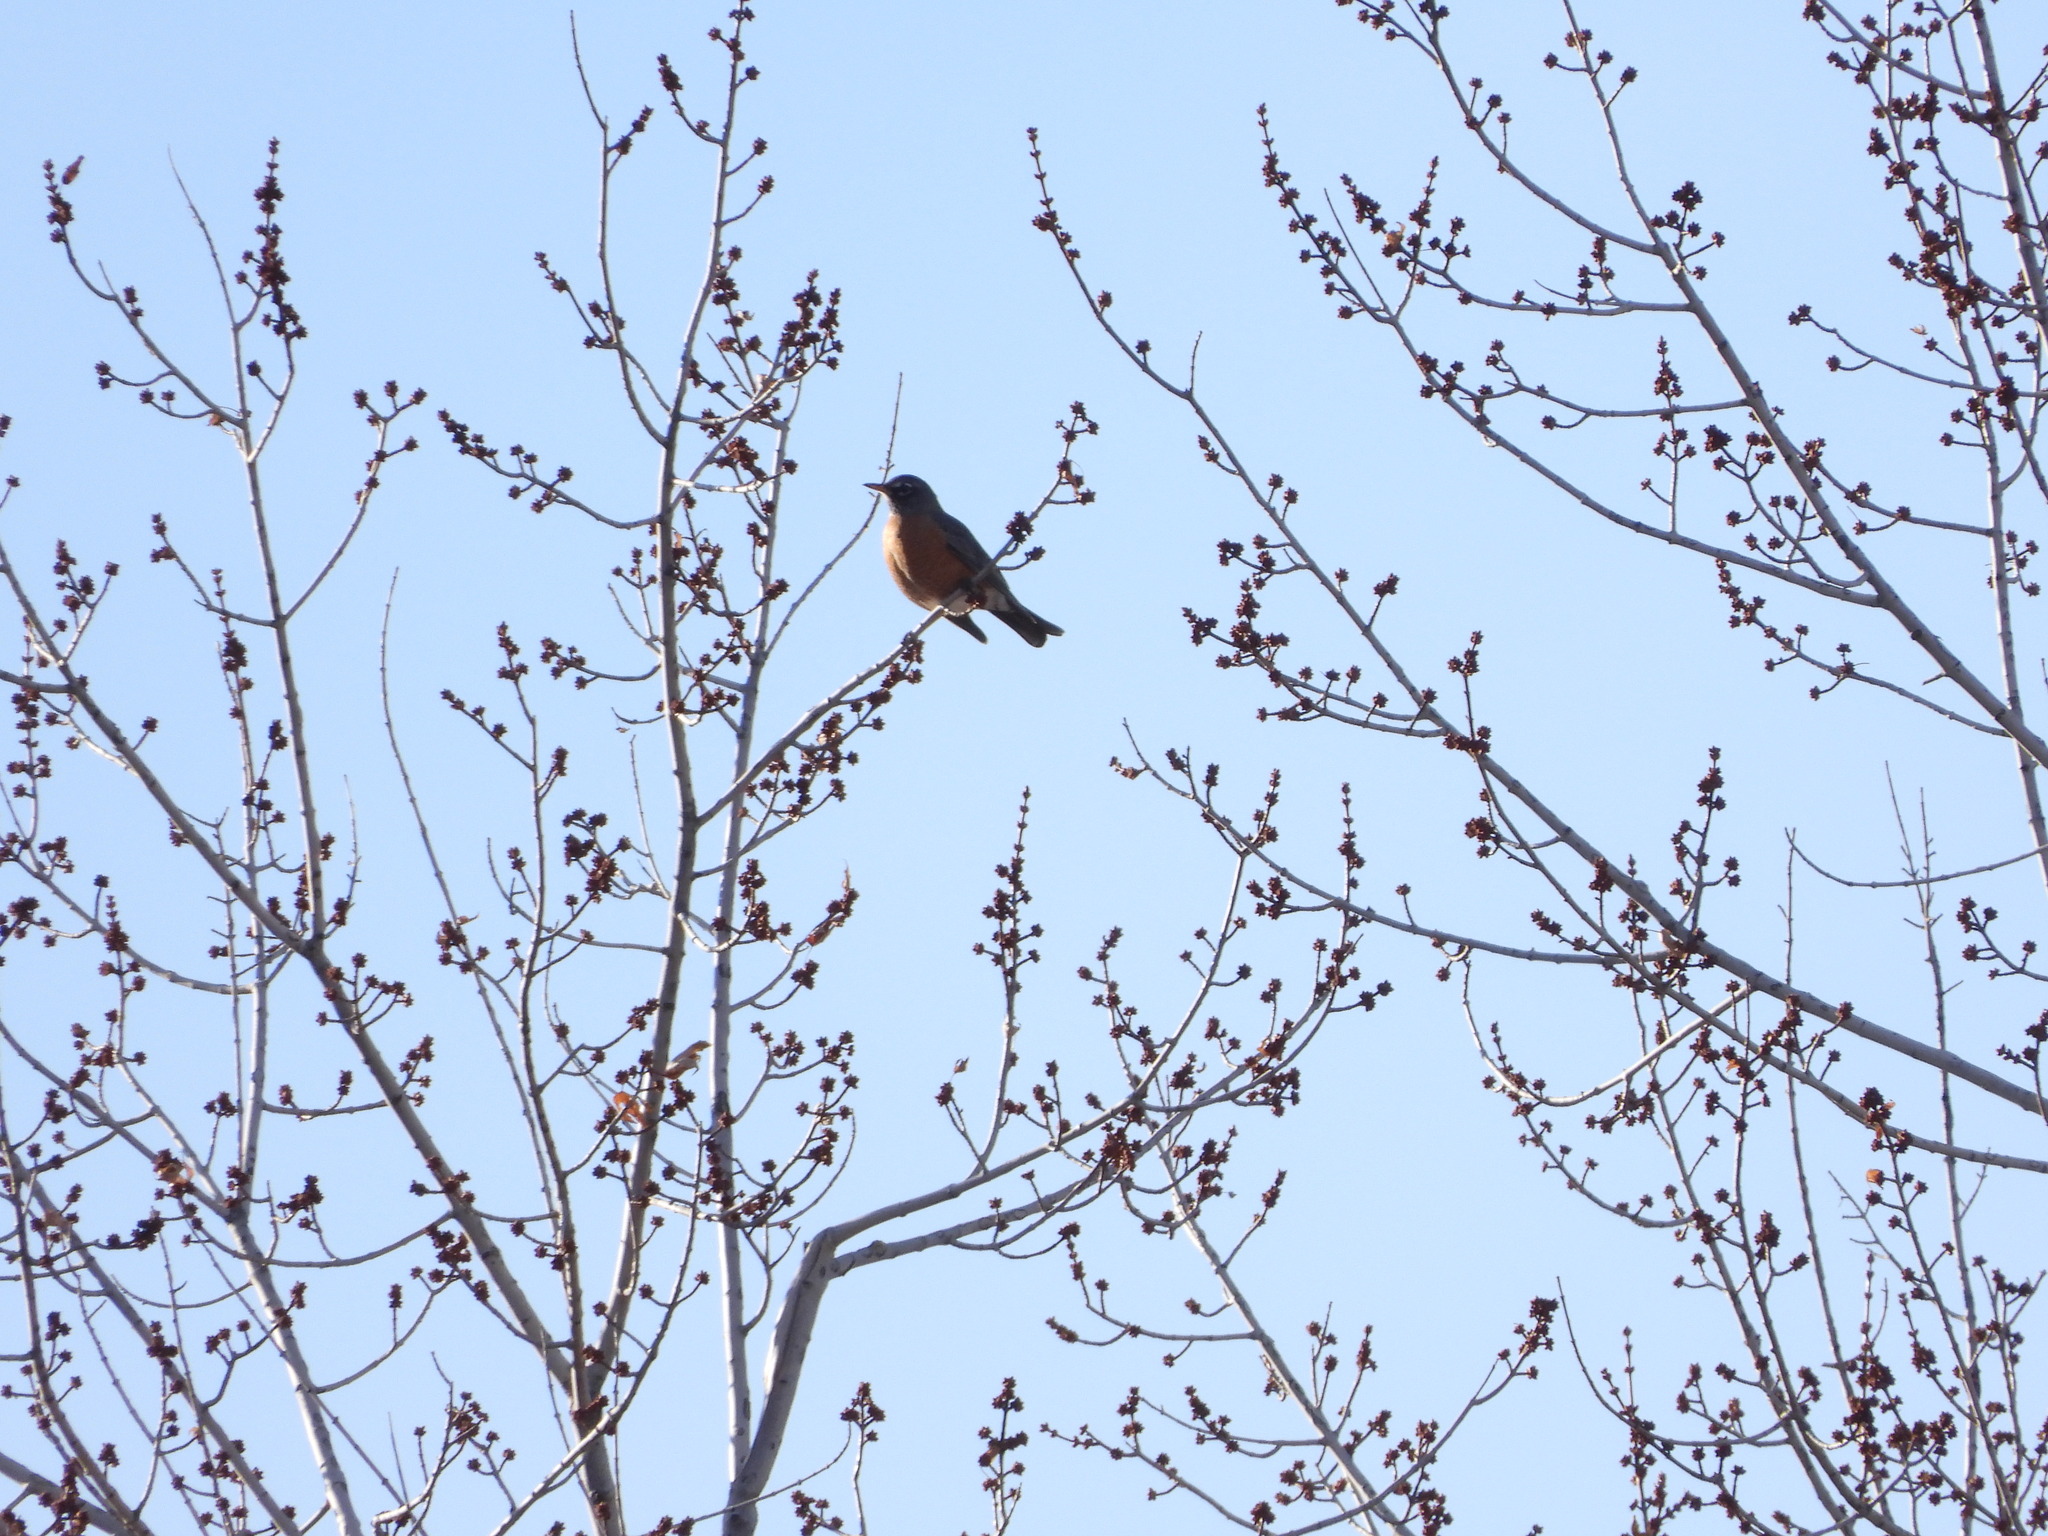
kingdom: Animalia
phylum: Chordata
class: Aves
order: Passeriformes
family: Turdidae
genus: Turdus
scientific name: Turdus migratorius
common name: American robin
